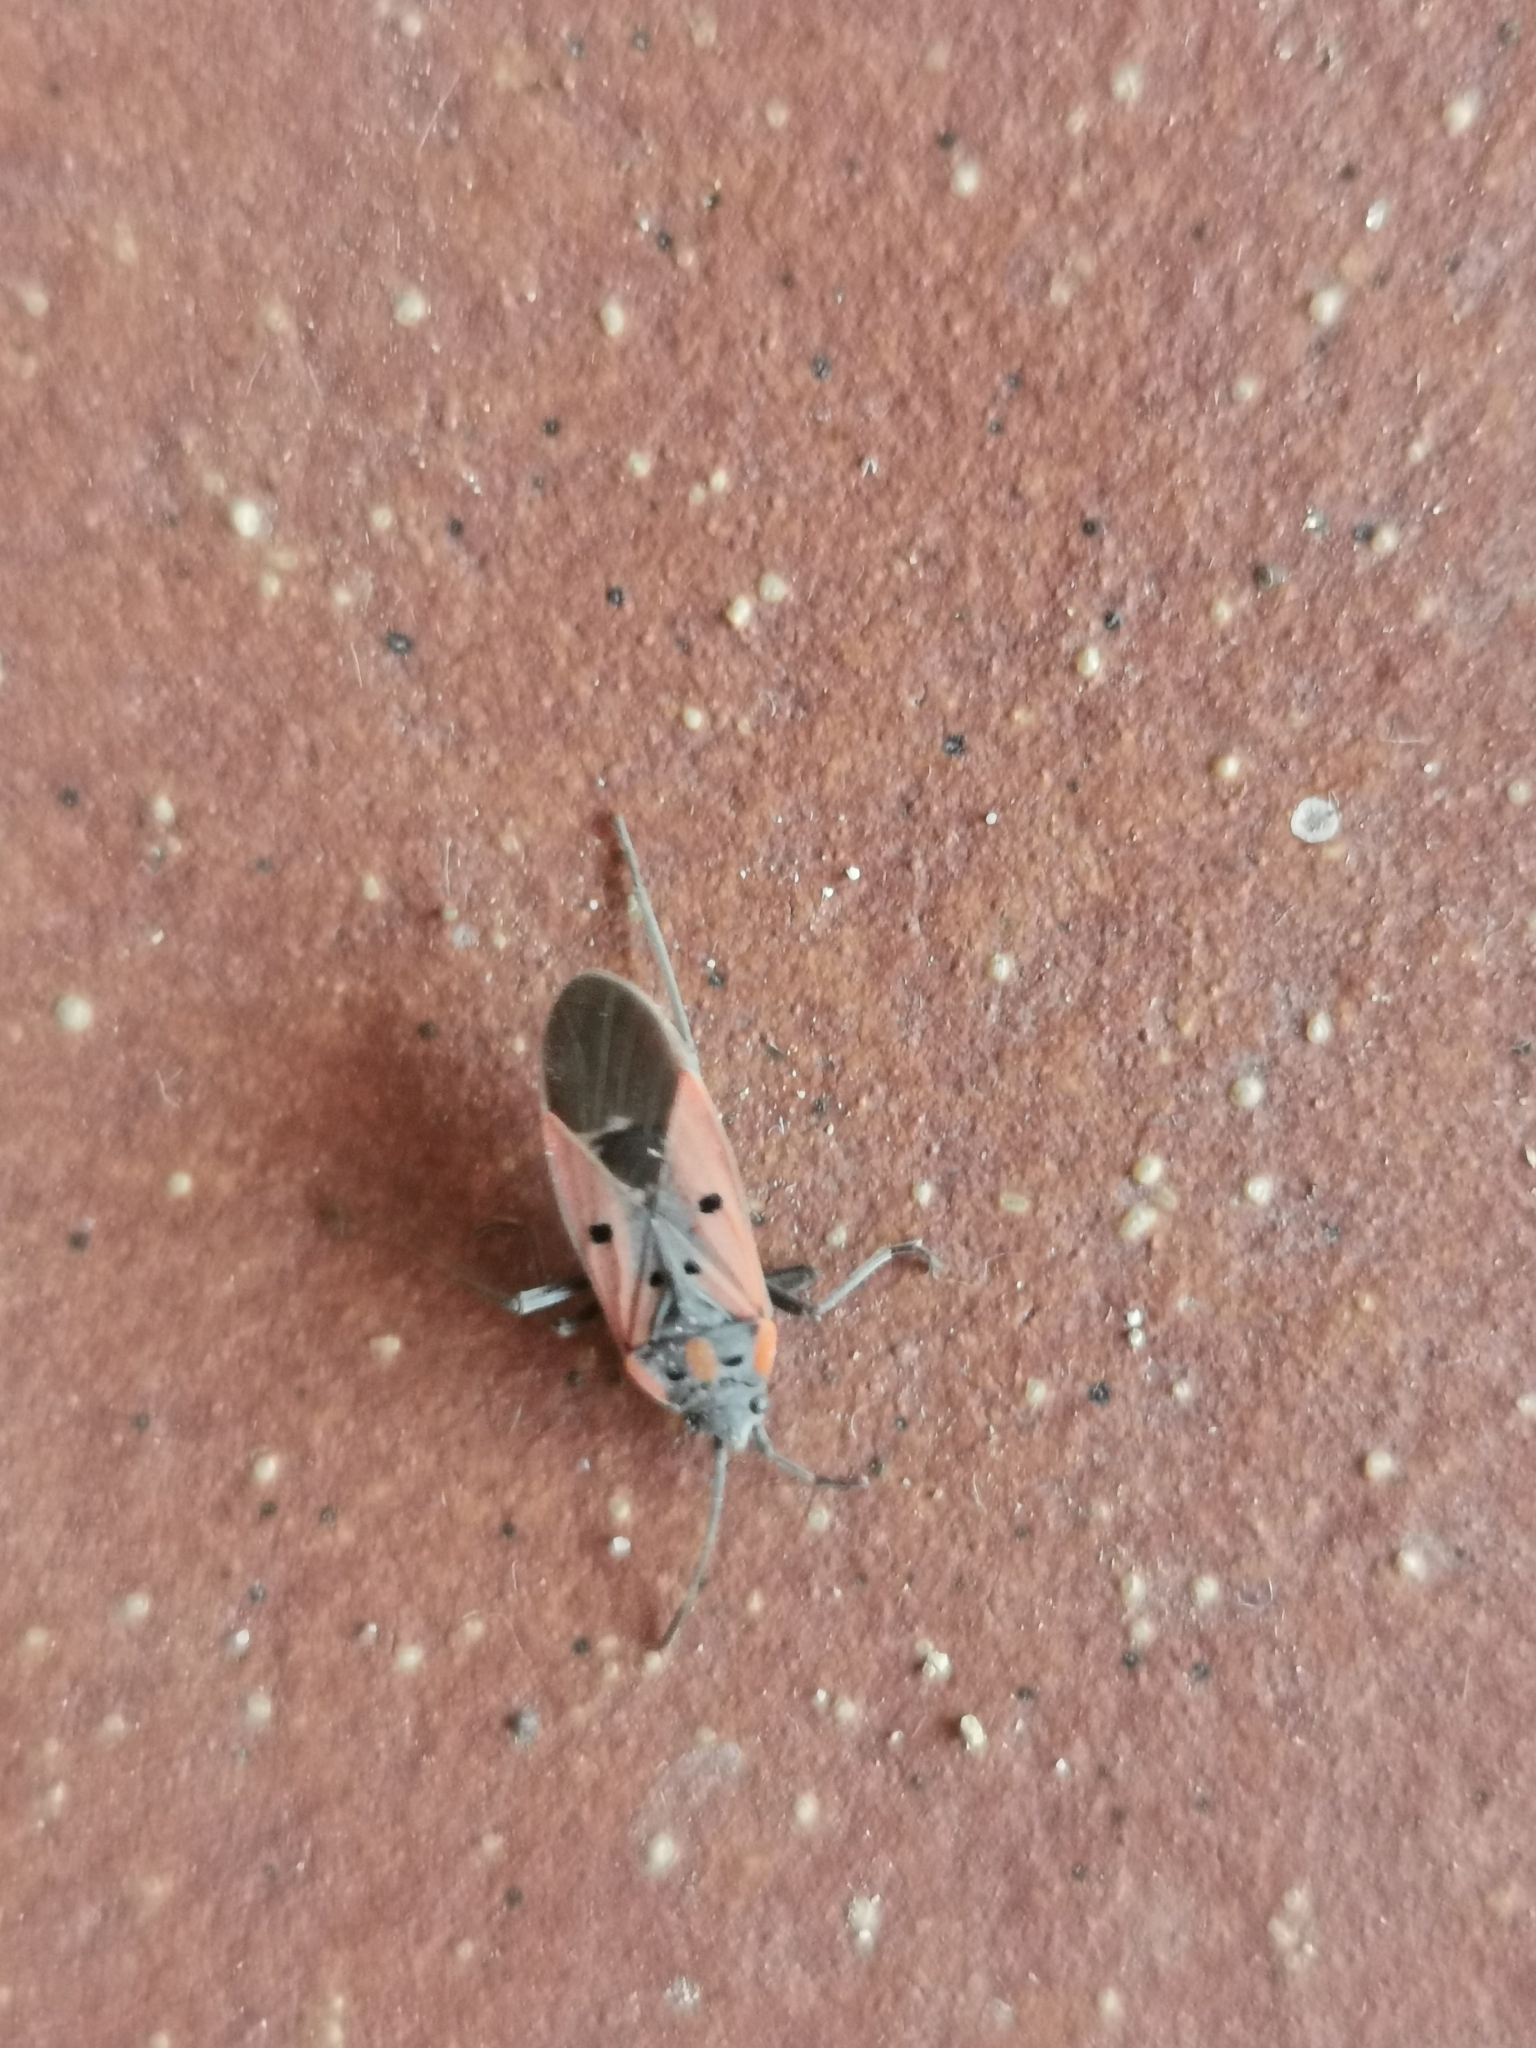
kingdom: Animalia
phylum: Arthropoda
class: Insecta
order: Hemiptera
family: Lygaeidae
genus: Lygaeus
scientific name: Lygaeus creticus
